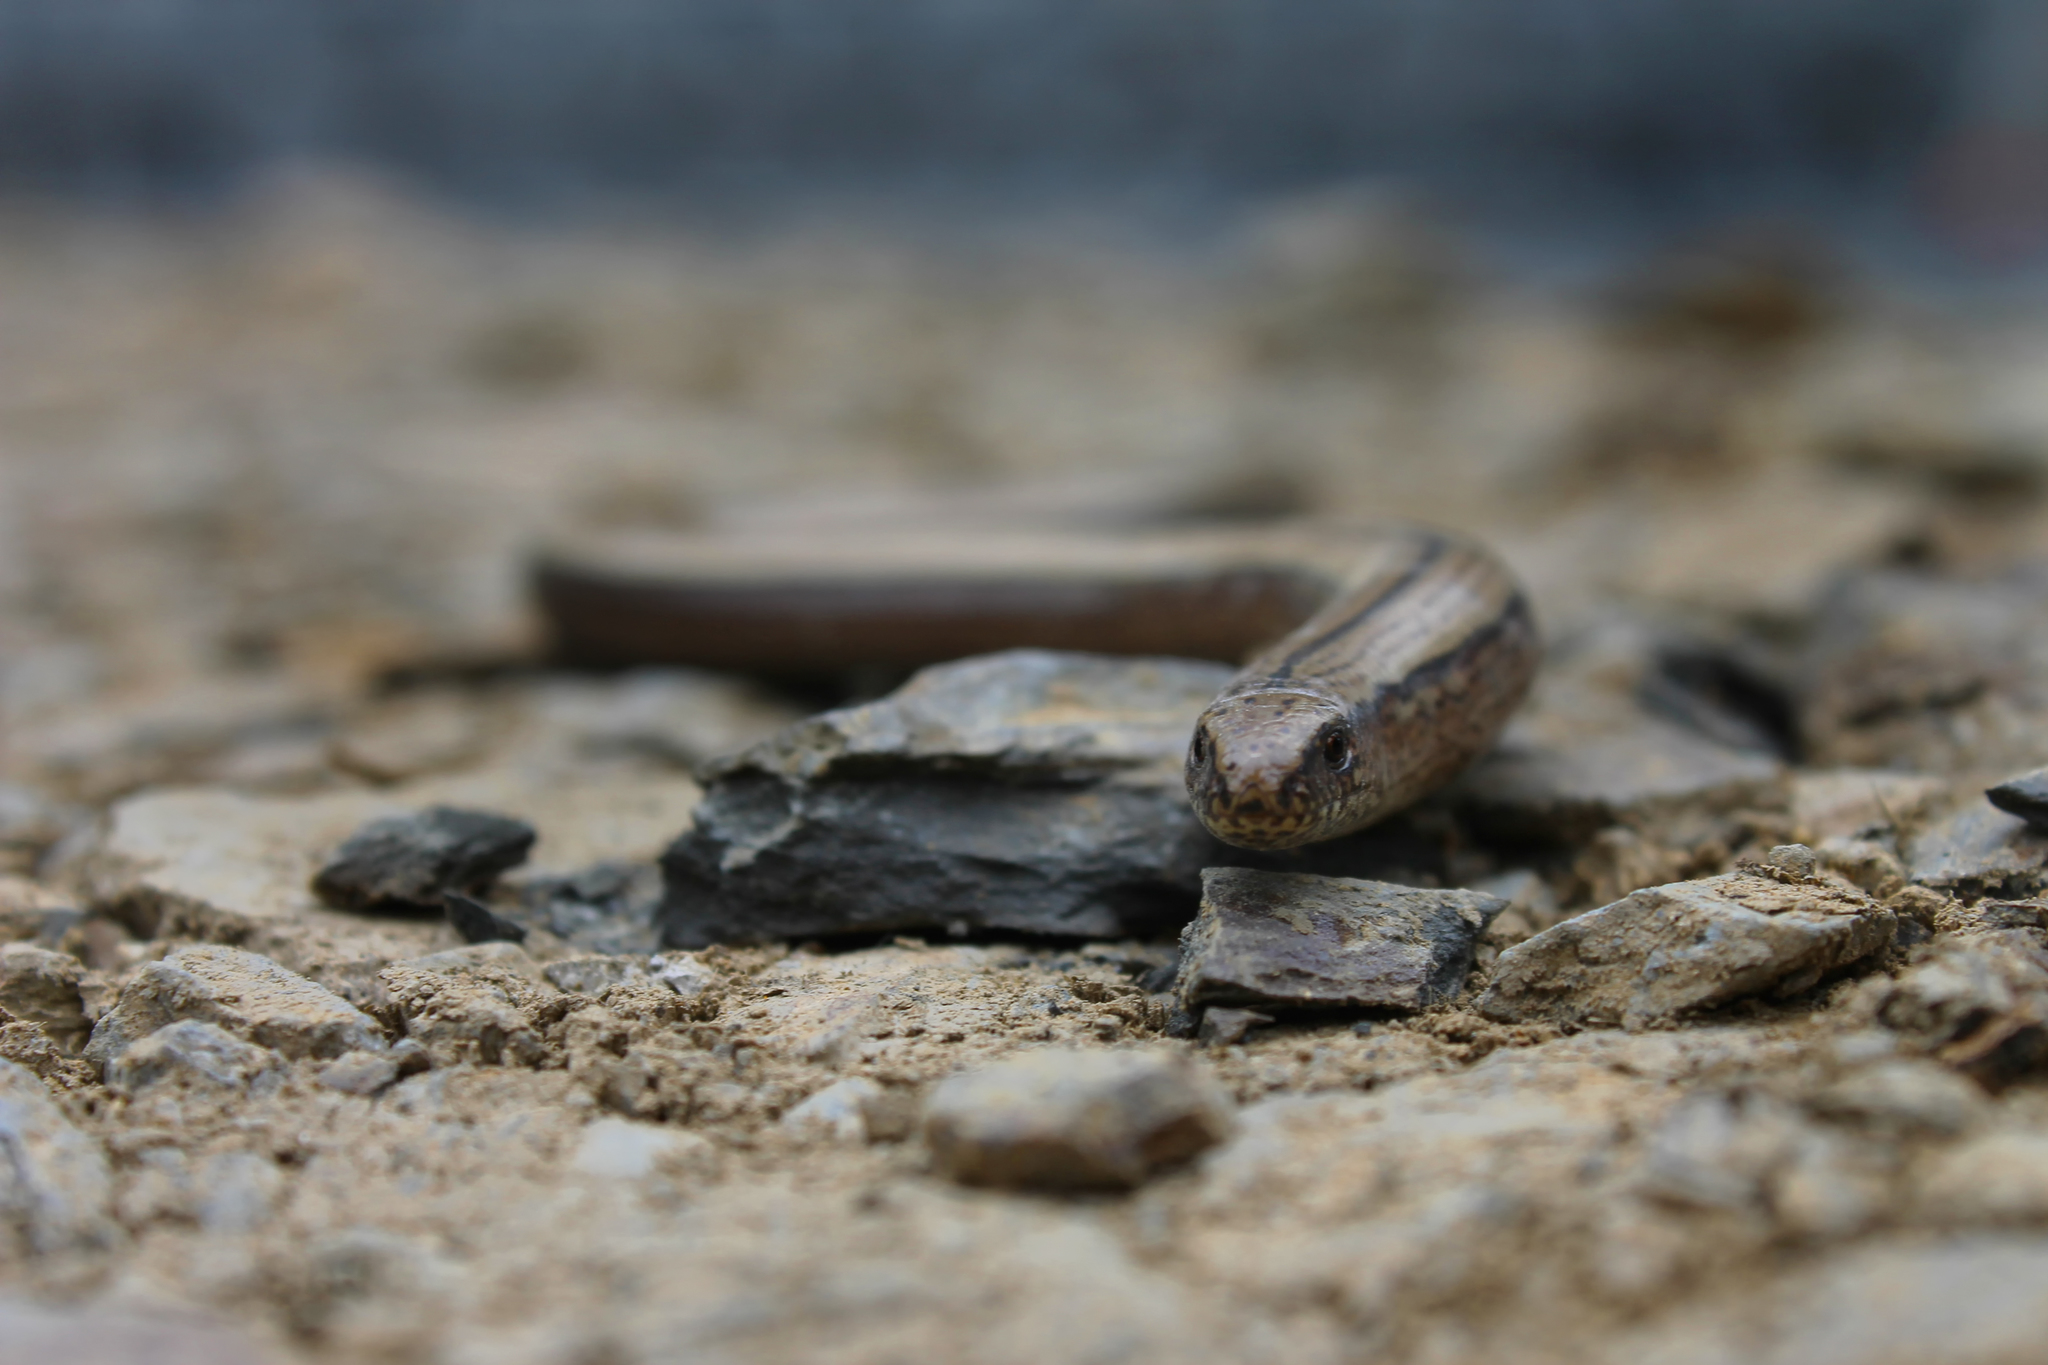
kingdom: Animalia
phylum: Chordata
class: Squamata
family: Anguidae
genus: Anguis
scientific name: Anguis fragilis
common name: Slow worm
